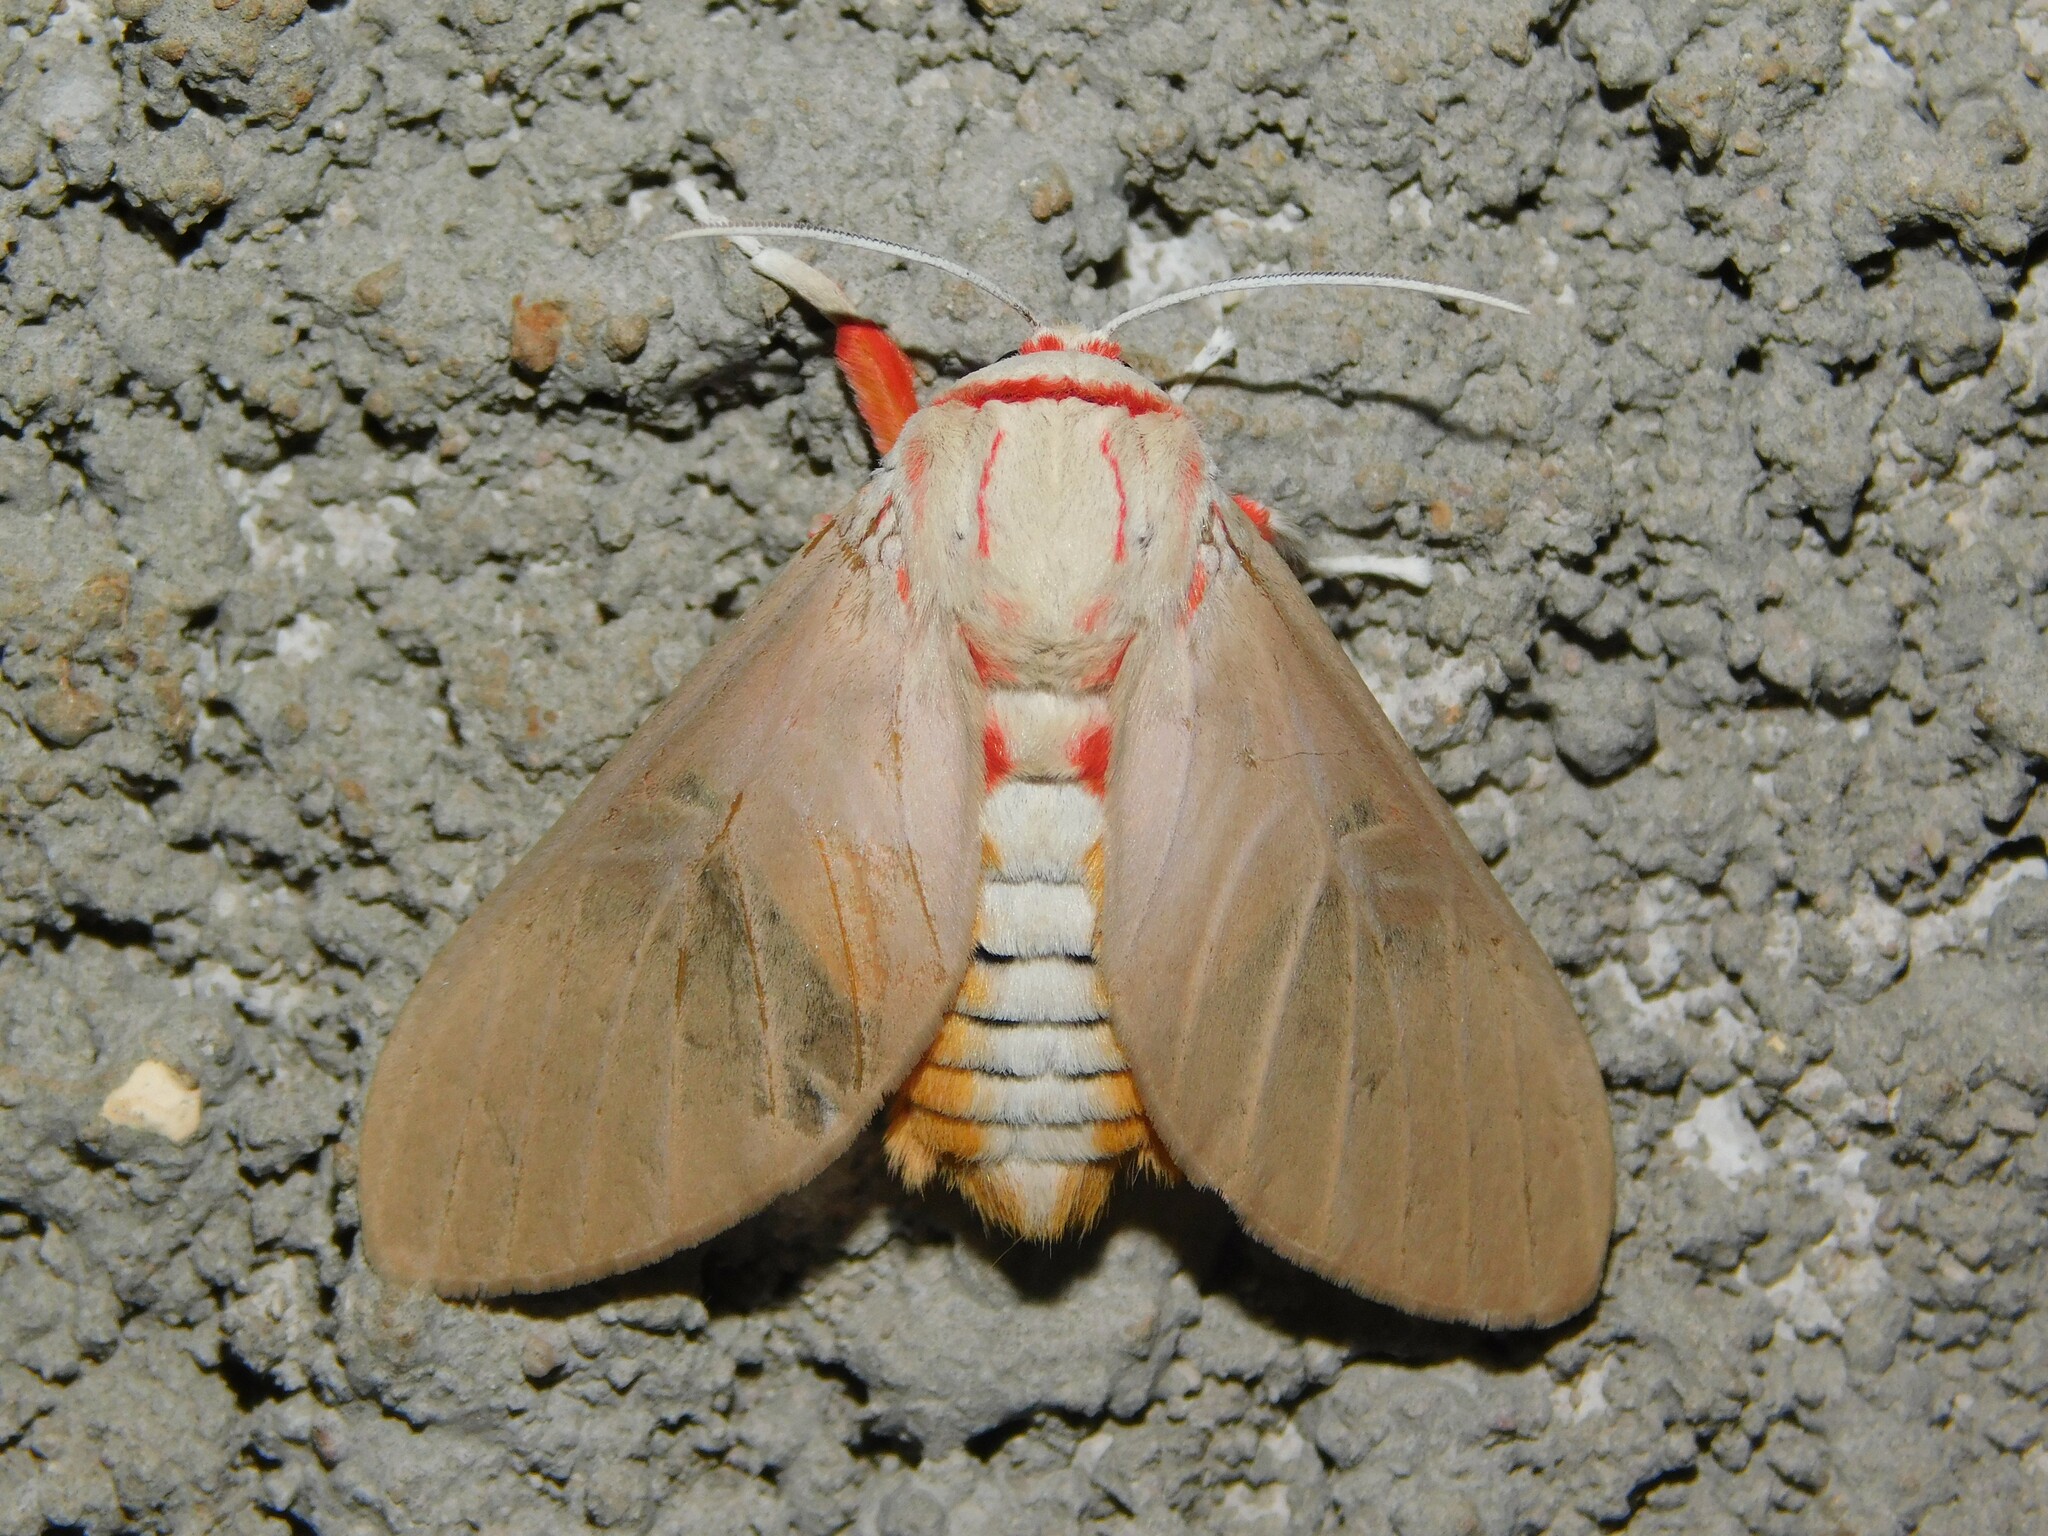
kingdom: Animalia
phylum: Arthropoda
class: Insecta
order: Lepidoptera
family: Erebidae
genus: Balacra
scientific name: Balacra herona
